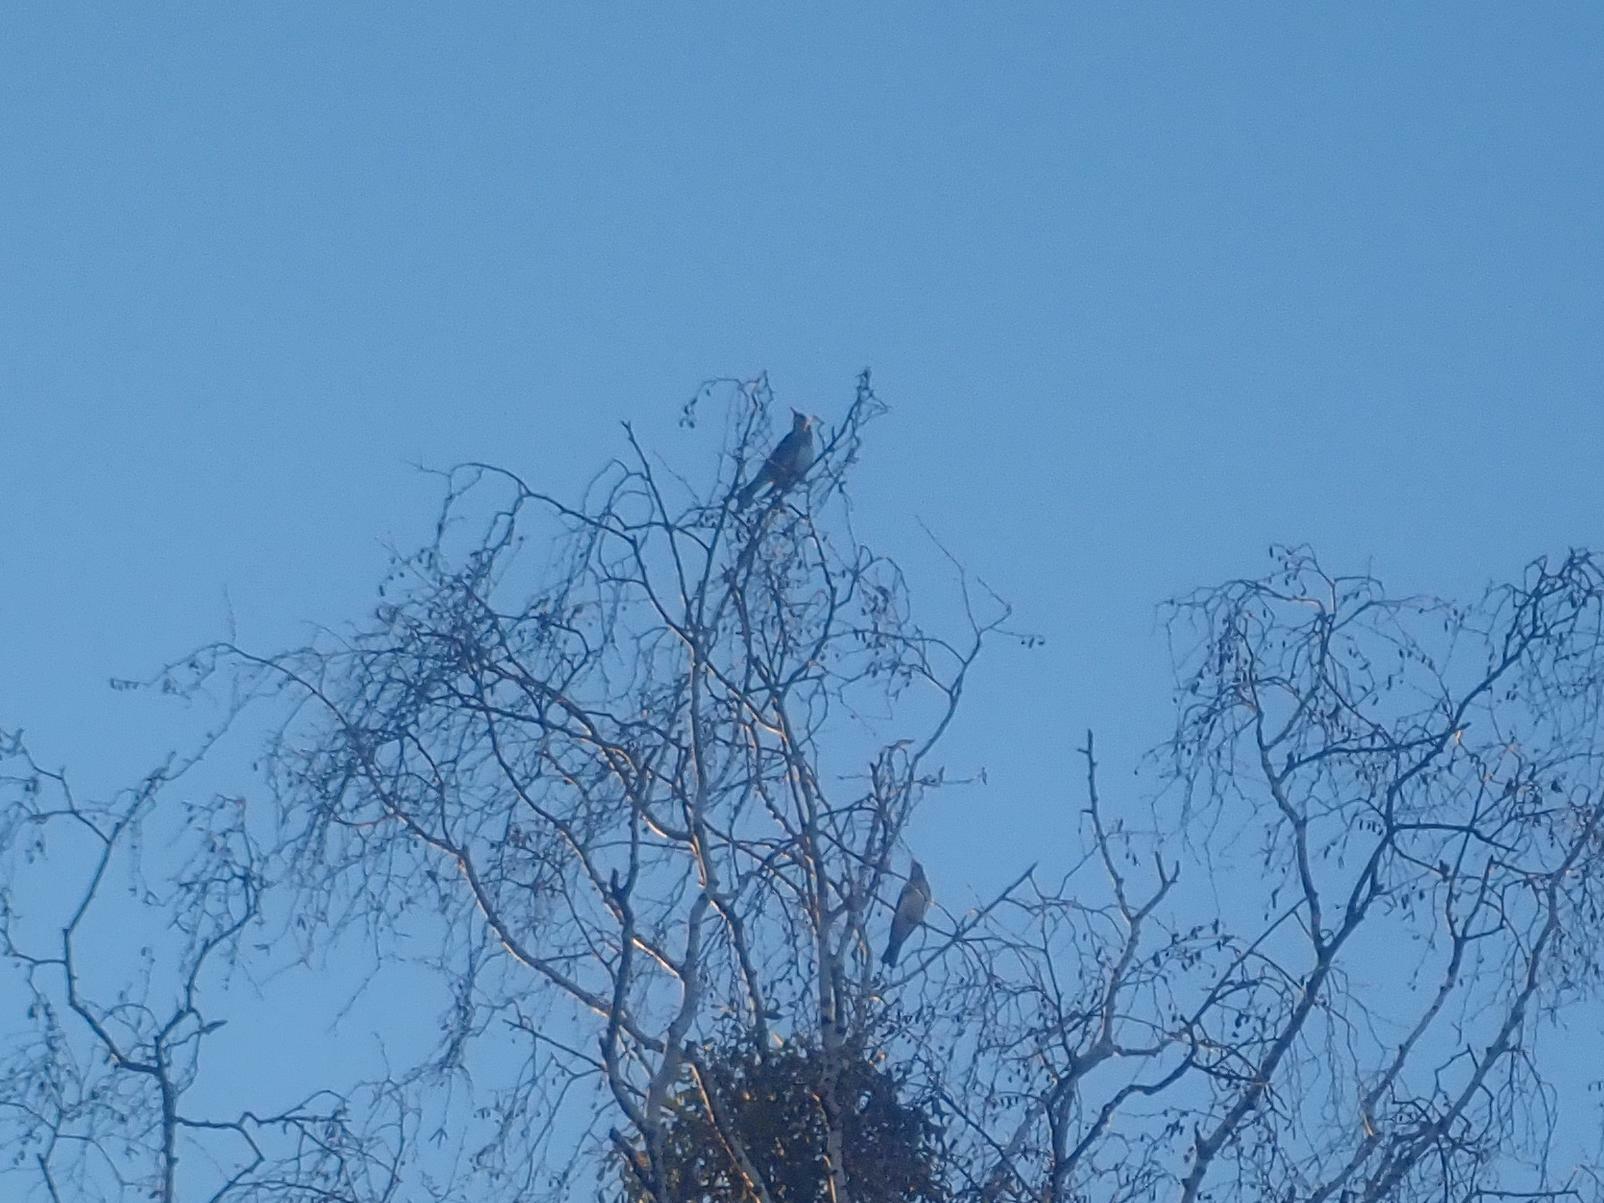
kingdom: Animalia
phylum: Chordata
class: Aves
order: Passeriformes
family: Turdidae
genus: Turdus
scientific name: Turdus pilaris
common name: Fieldfare
